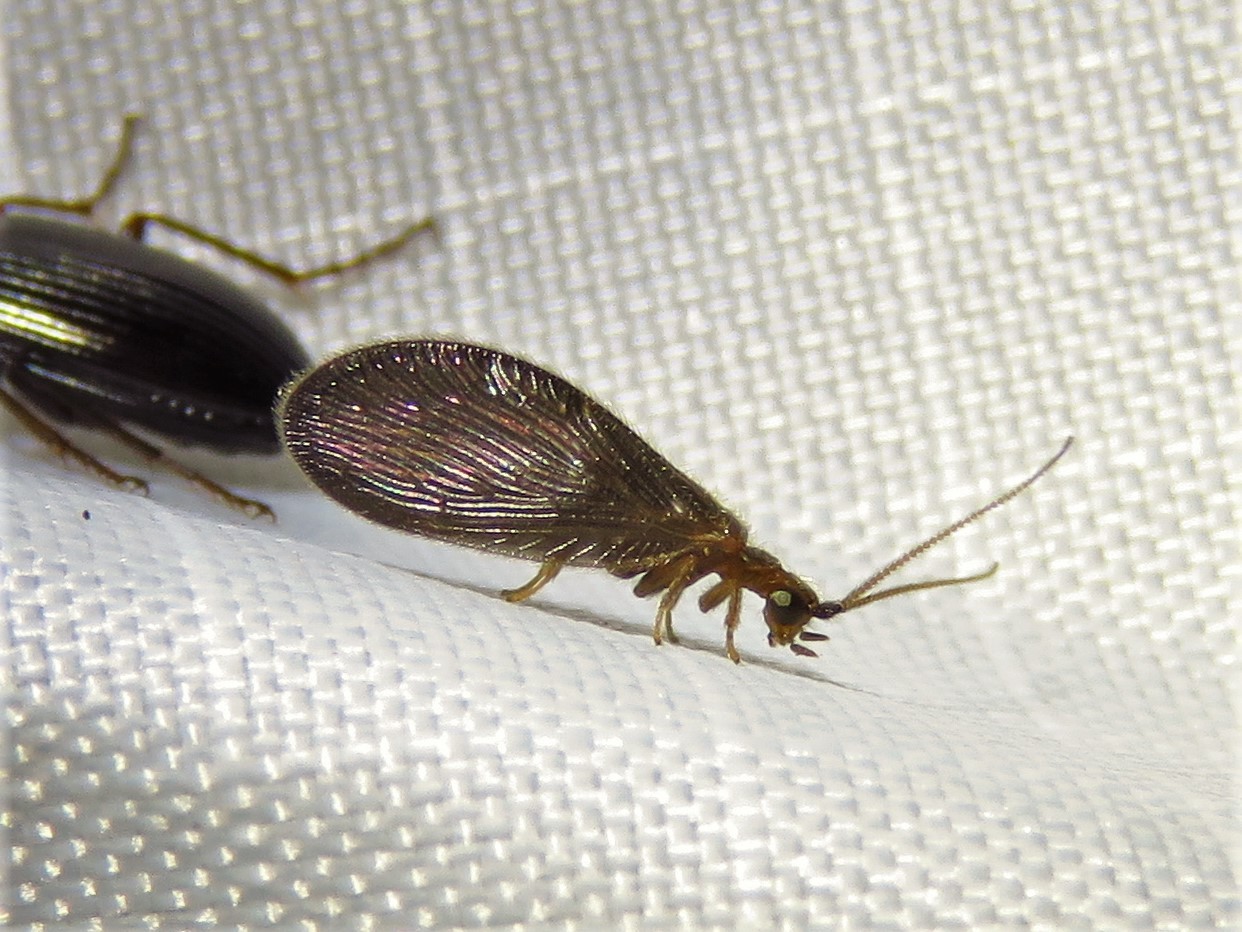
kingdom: Animalia
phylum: Arthropoda
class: Insecta
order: Neuroptera
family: Sisyridae
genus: Sisyra
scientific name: Sisyra vicaria
